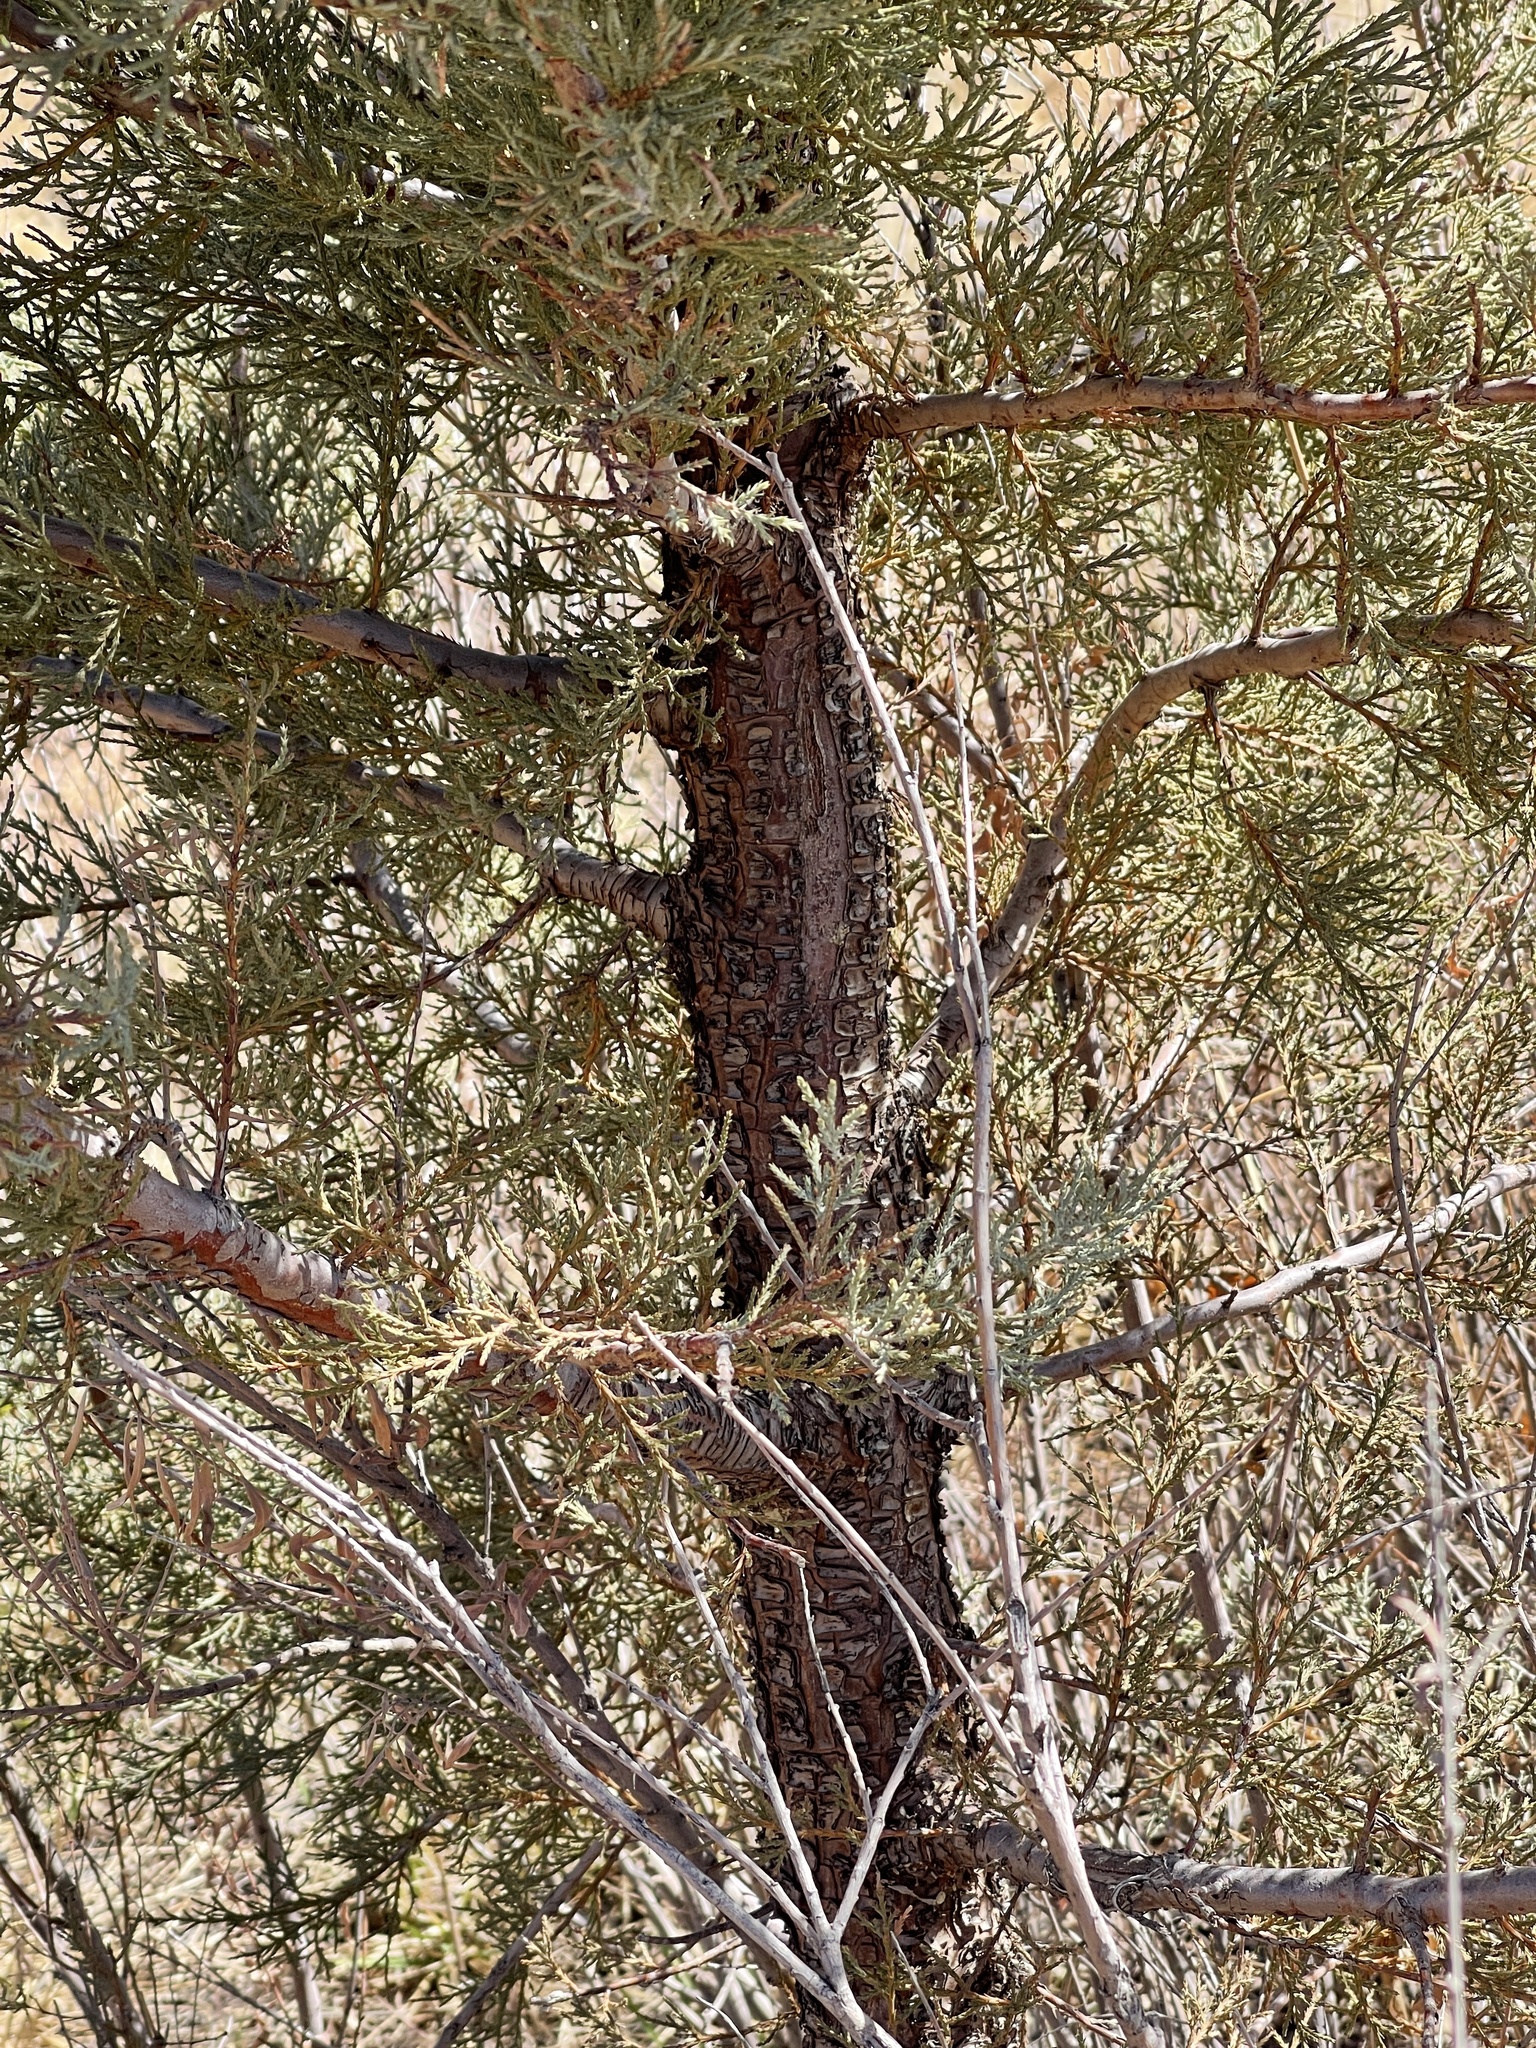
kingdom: Plantae
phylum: Tracheophyta
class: Pinopsida
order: Pinales
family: Cupressaceae
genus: Juniperus
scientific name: Juniperus deppeana
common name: Alligator juniper
